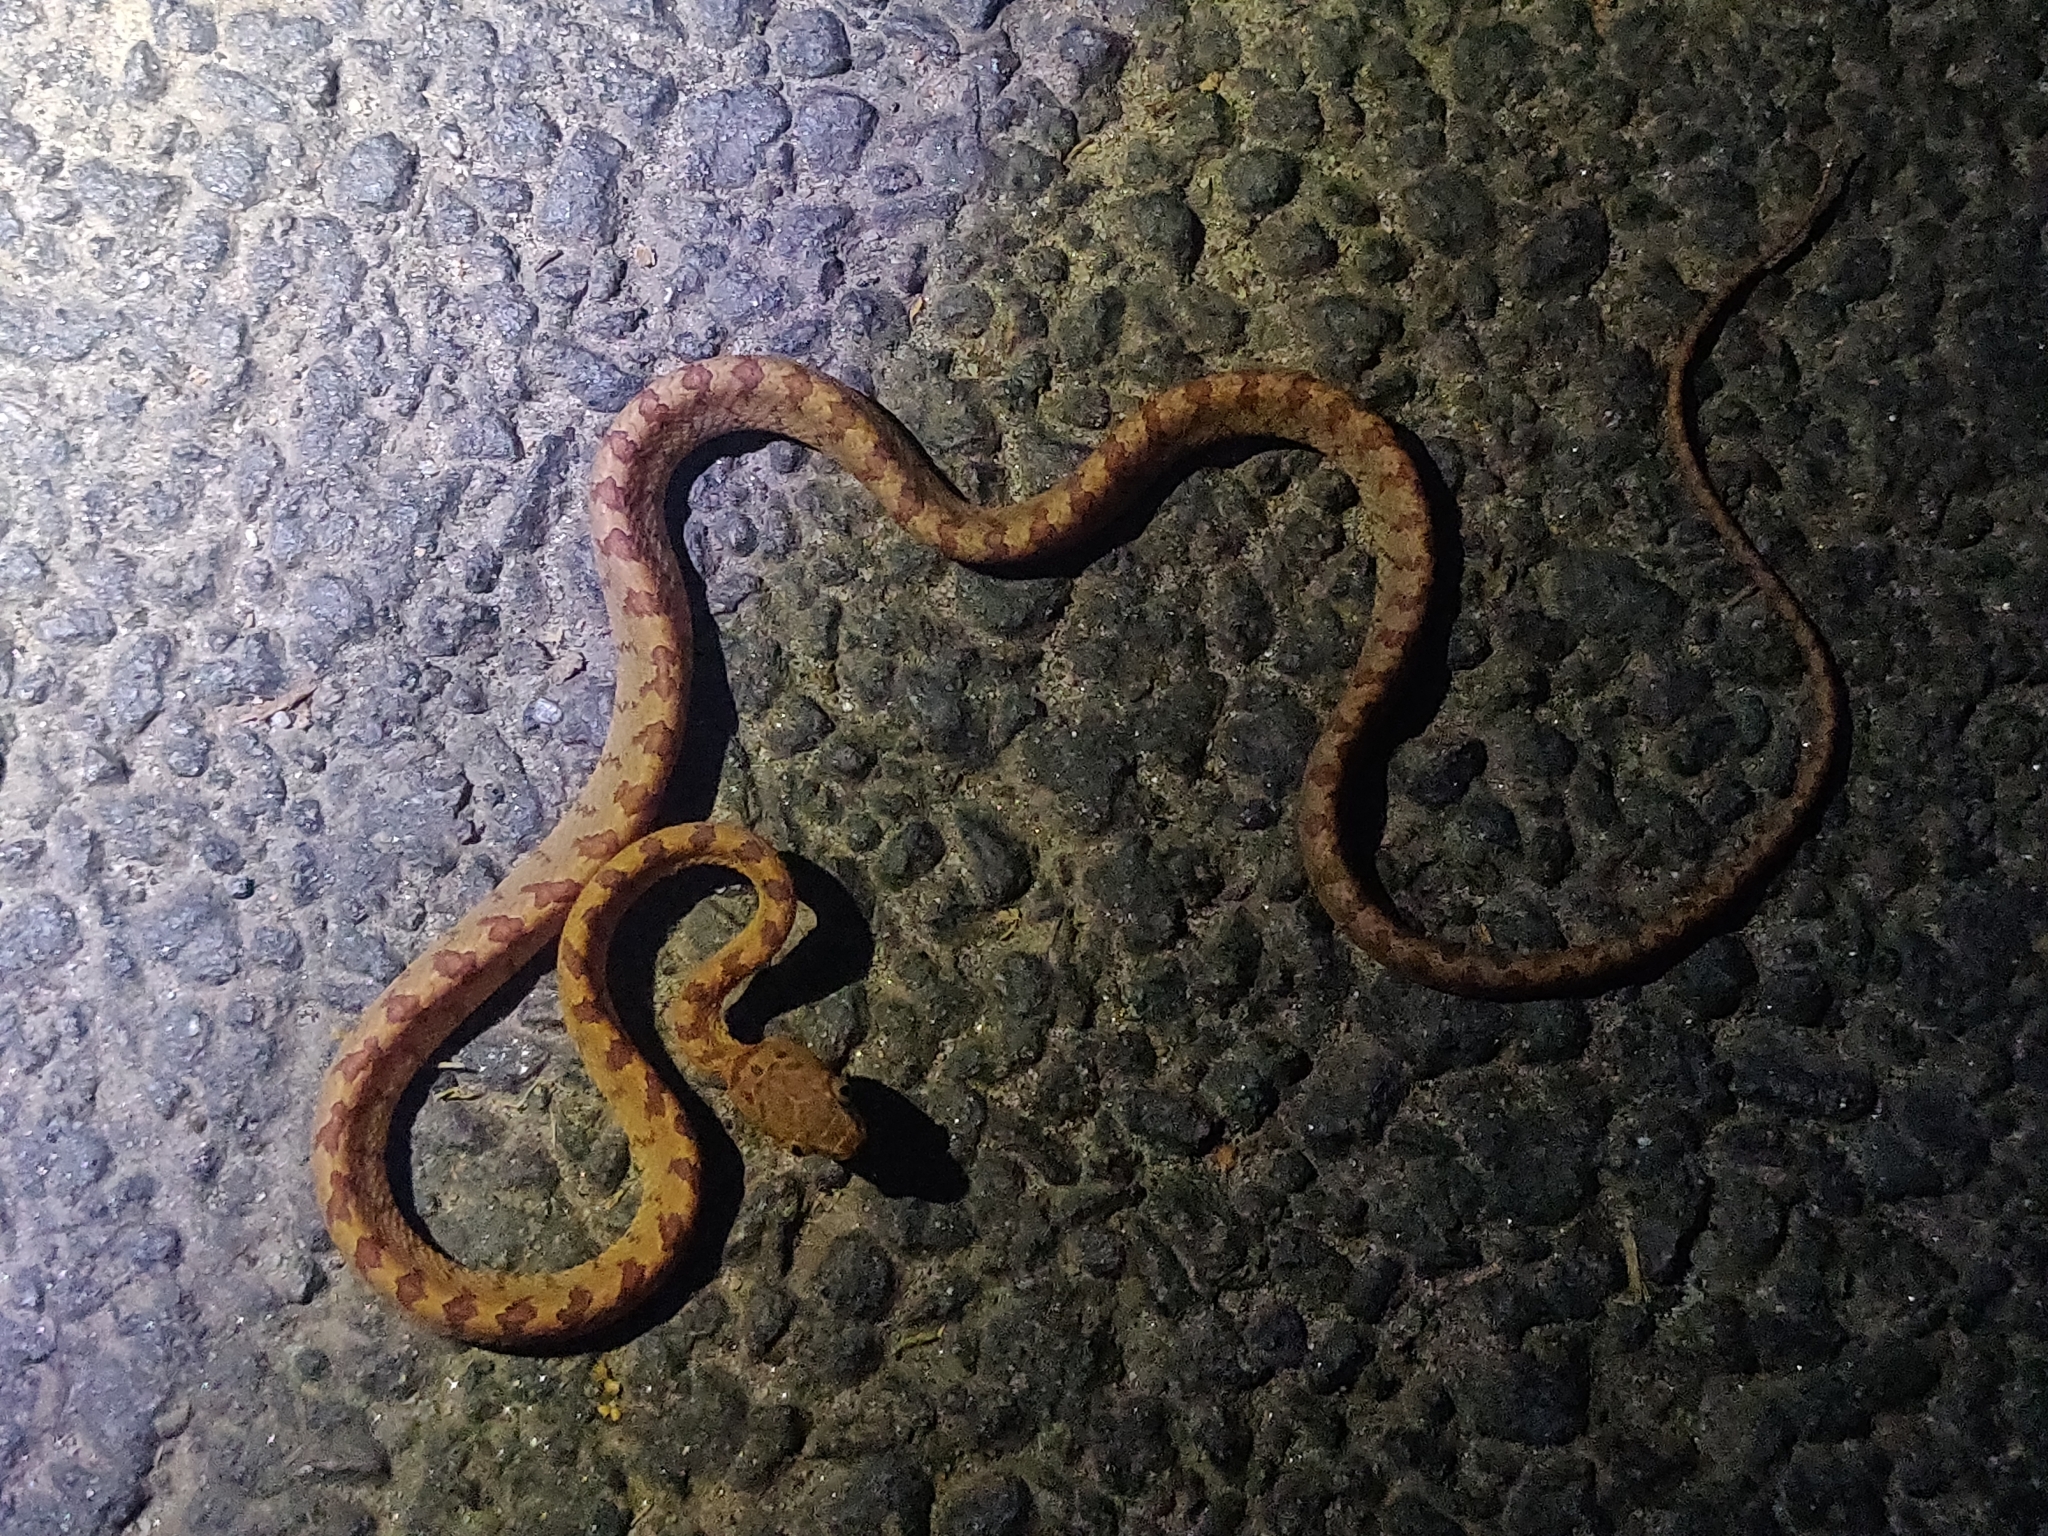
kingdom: Animalia
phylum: Chordata
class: Squamata
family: Colubridae
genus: Boiga
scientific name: Boiga dightoni
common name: Pirmad cat snake
